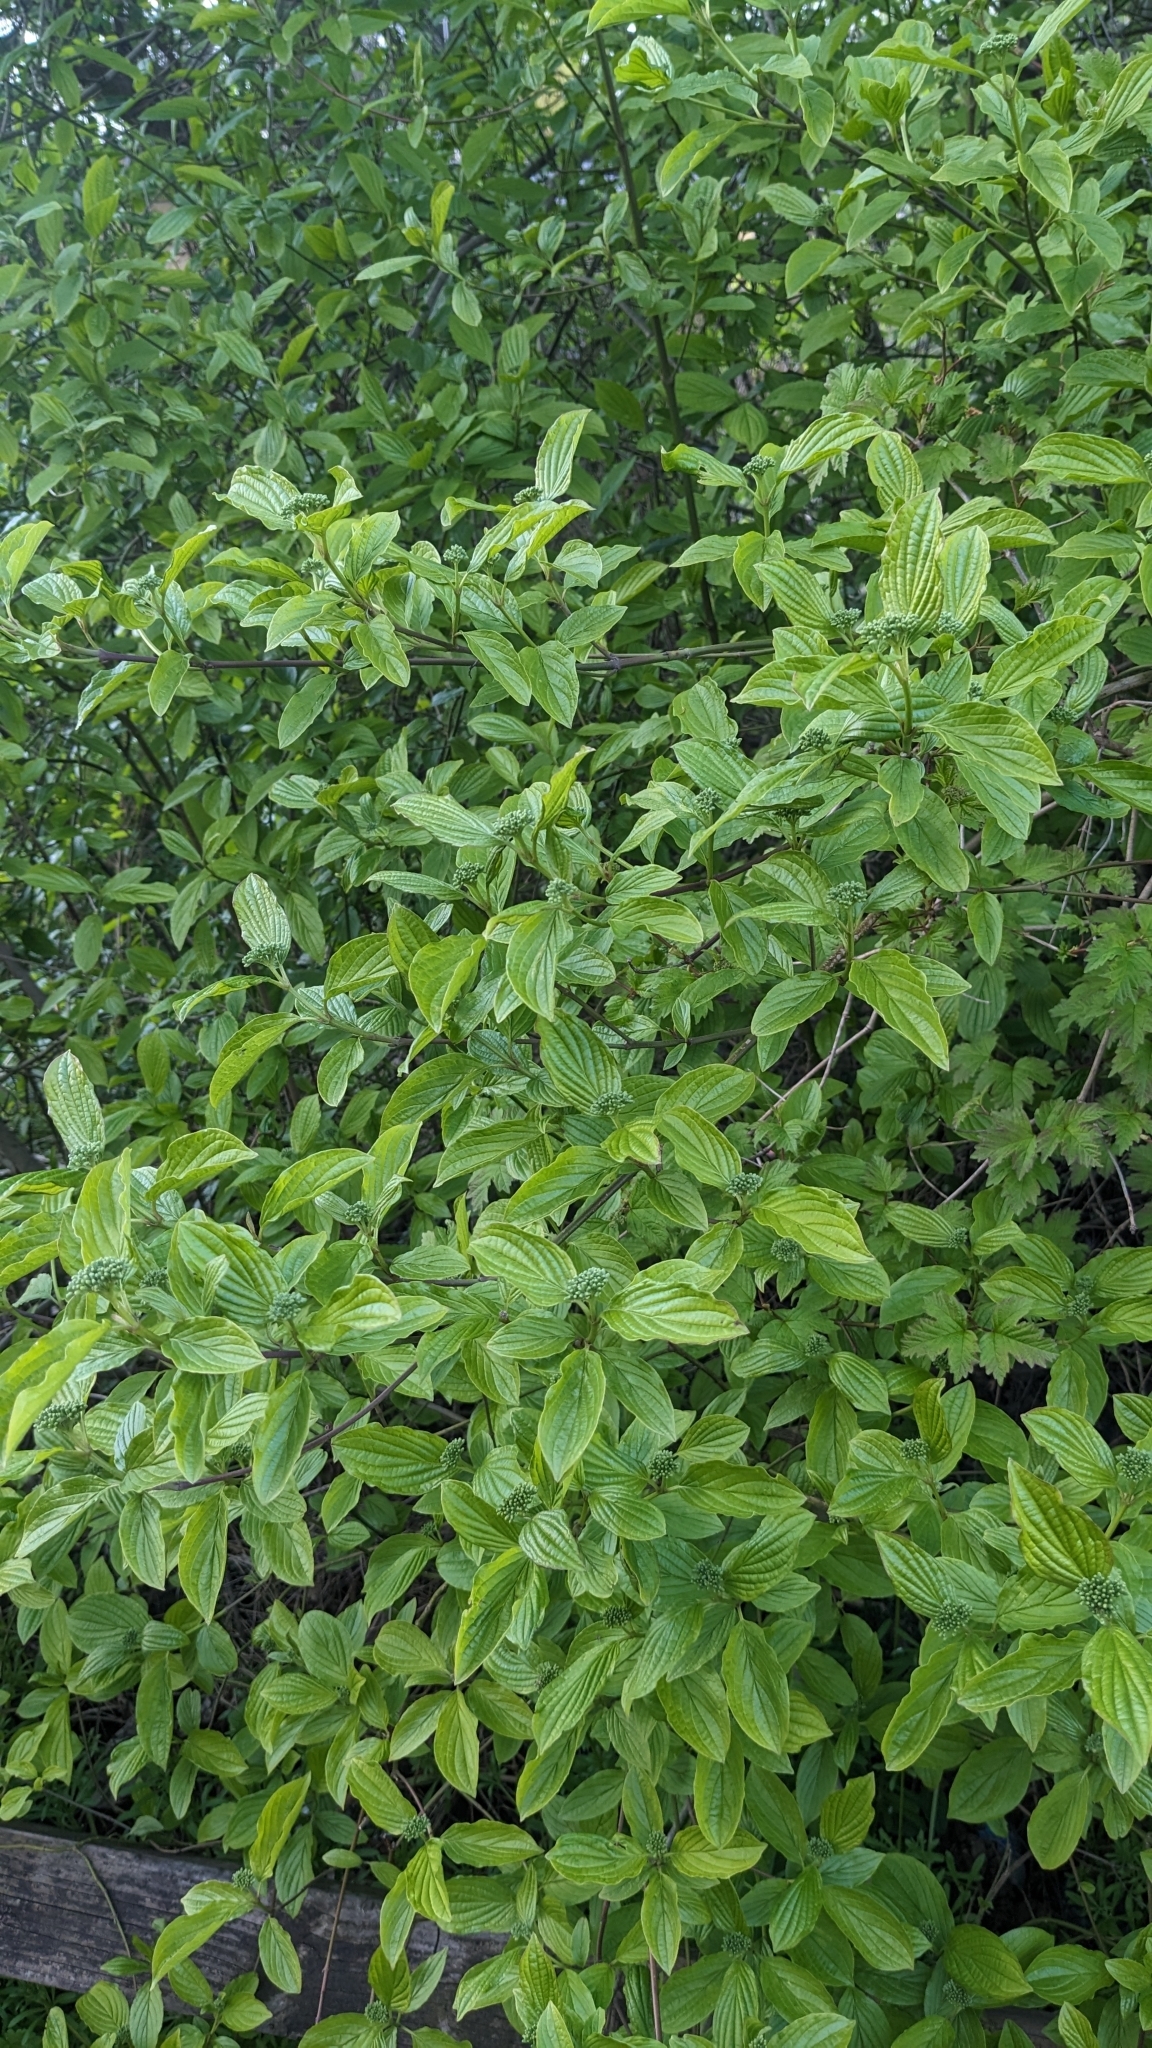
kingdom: Plantae
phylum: Tracheophyta
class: Magnoliopsida
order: Cornales
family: Cornaceae
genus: Cornus
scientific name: Cornus sanguinea
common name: Dogwood
